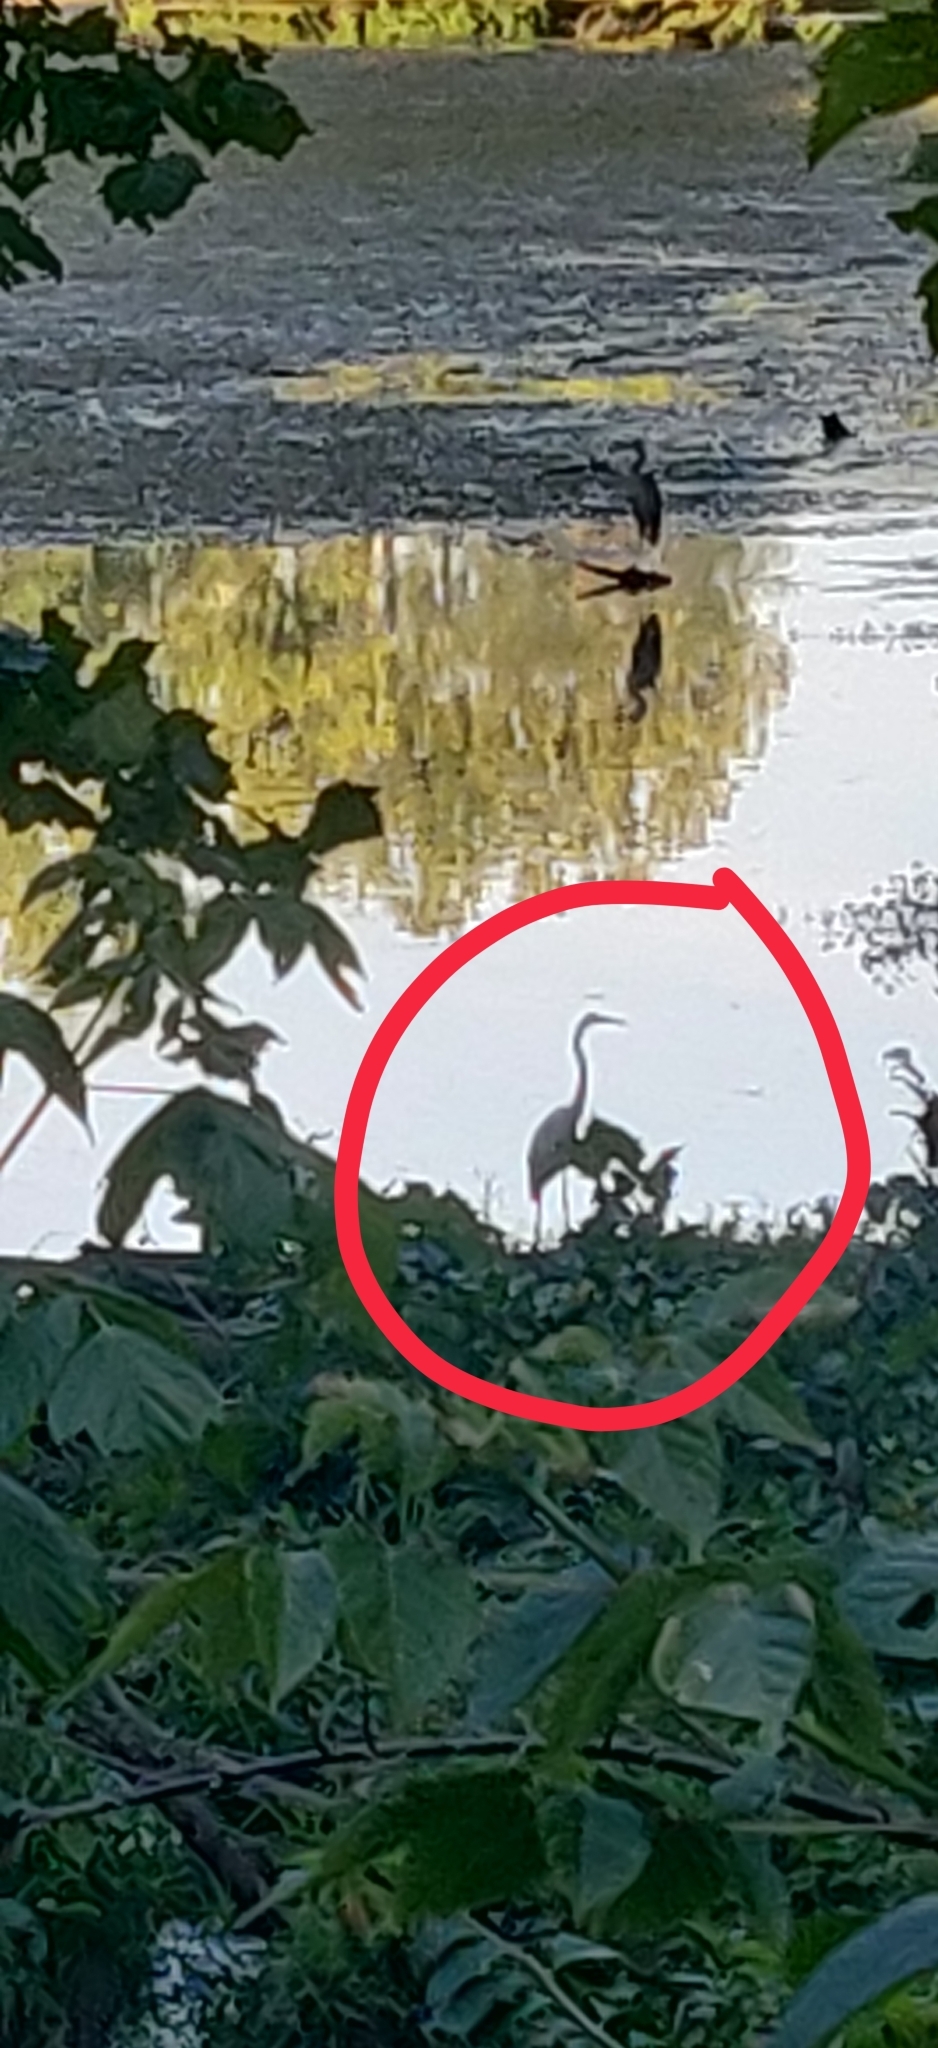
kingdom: Animalia
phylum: Chordata
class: Aves
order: Pelecaniformes
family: Ardeidae
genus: Ardea
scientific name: Ardea alba
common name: Great egret
